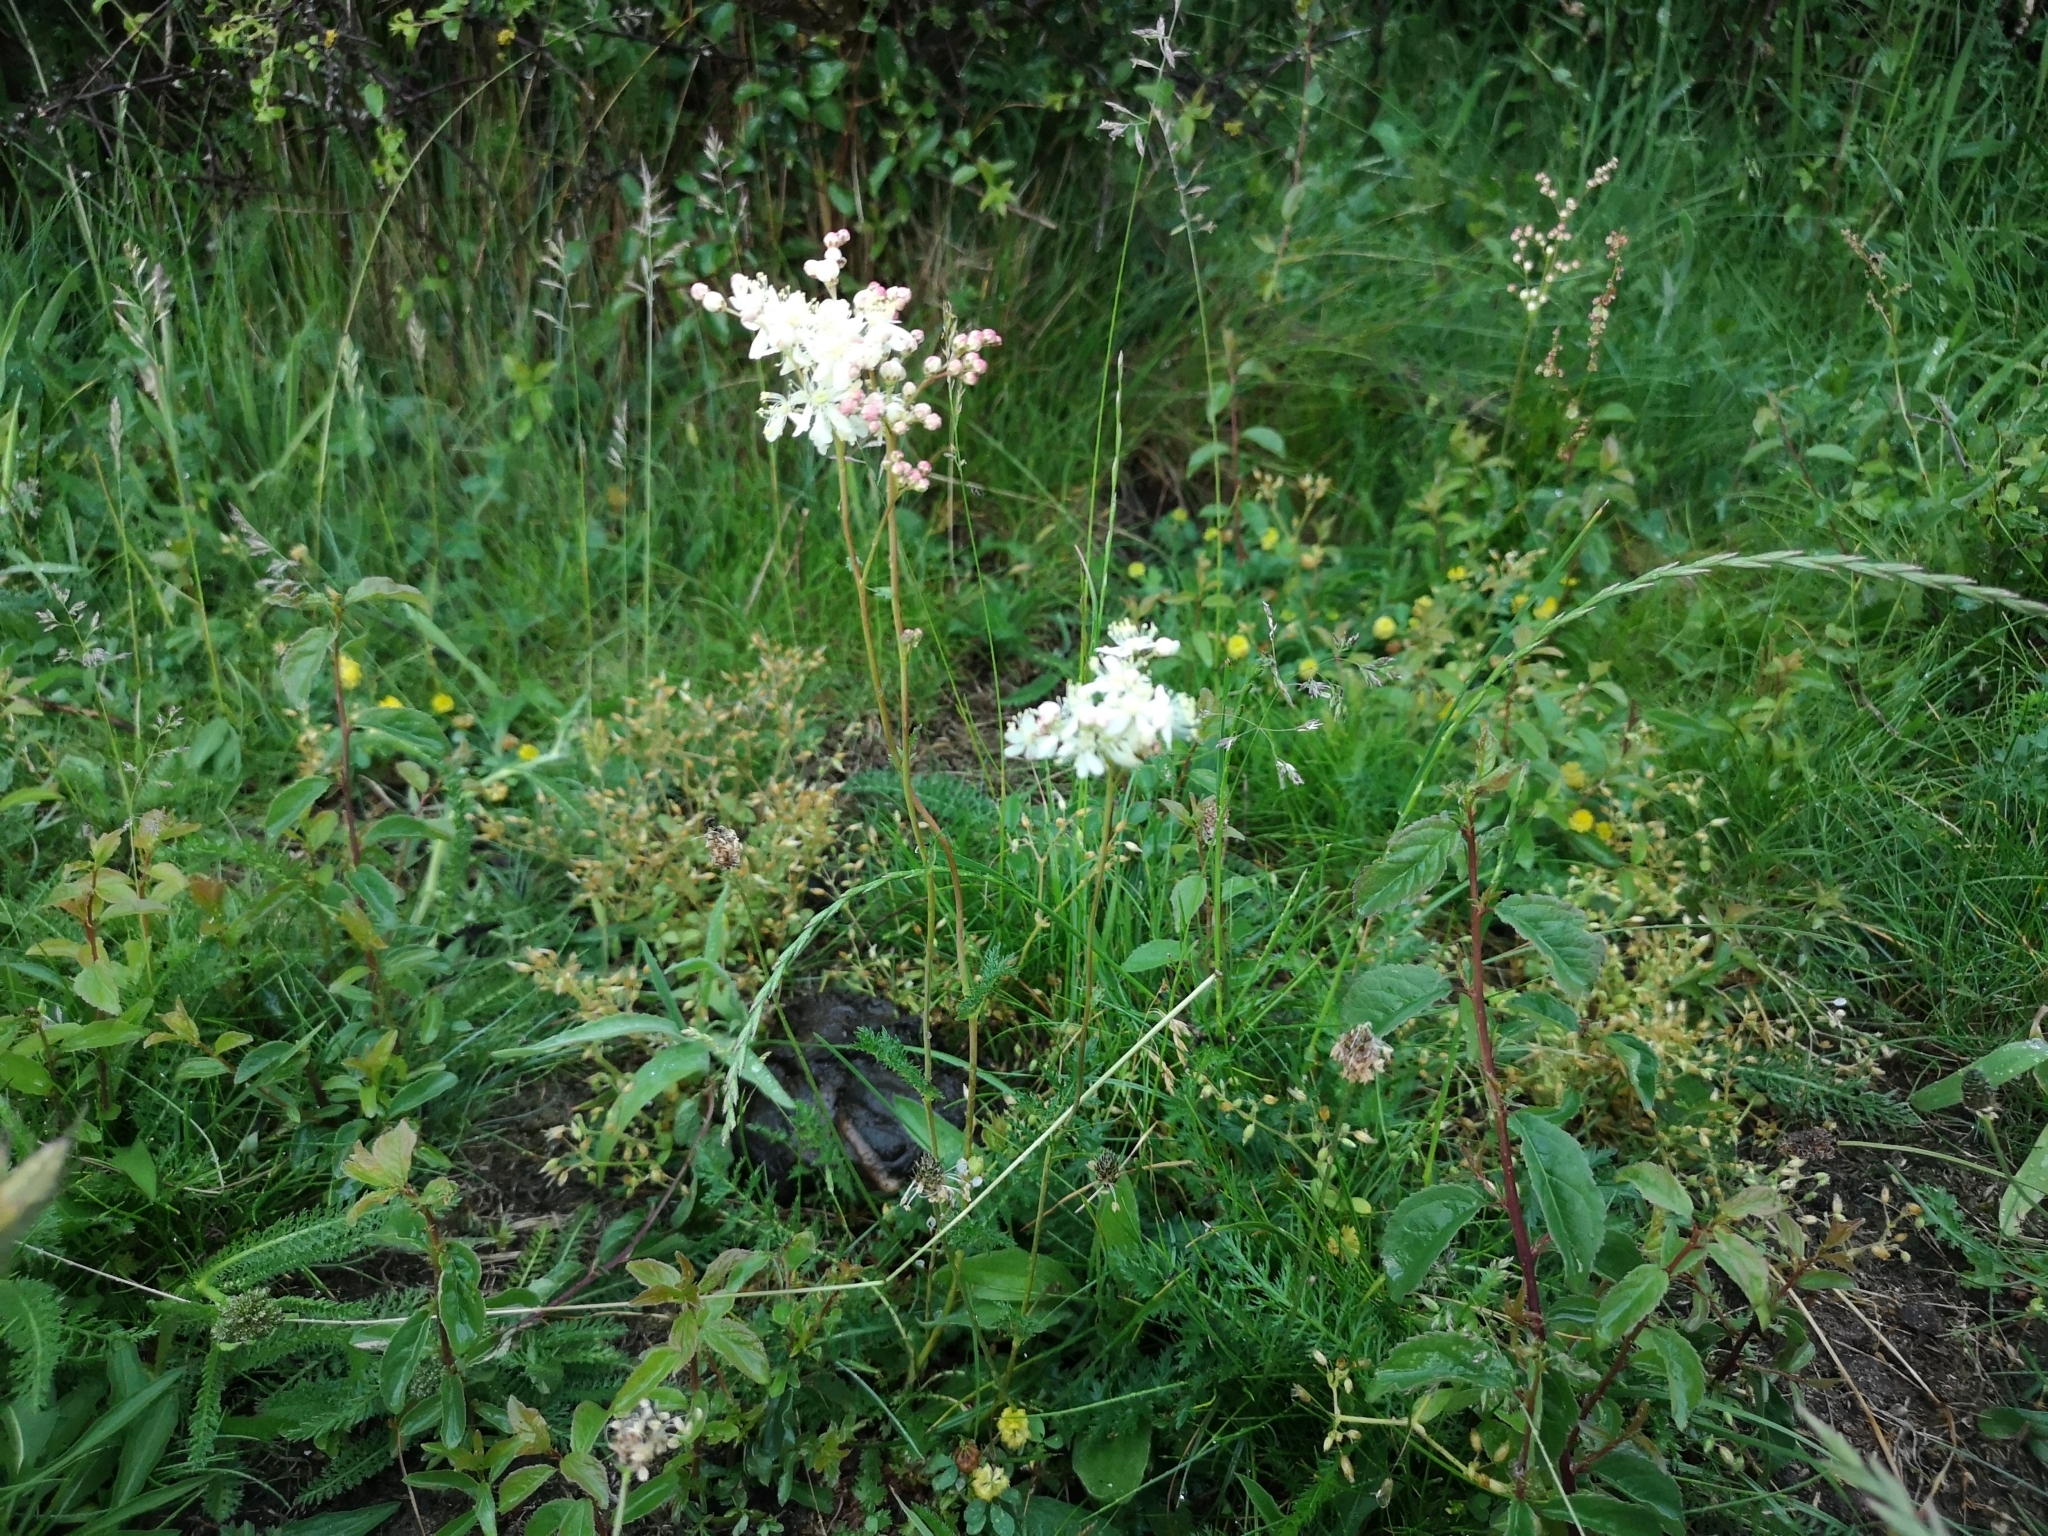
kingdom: Plantae
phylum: Tracheophyta
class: Magnoliopsida
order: Rosales
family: Rosaceae
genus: Filipendula
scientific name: Filipendula vulgaris
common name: Dropwort
